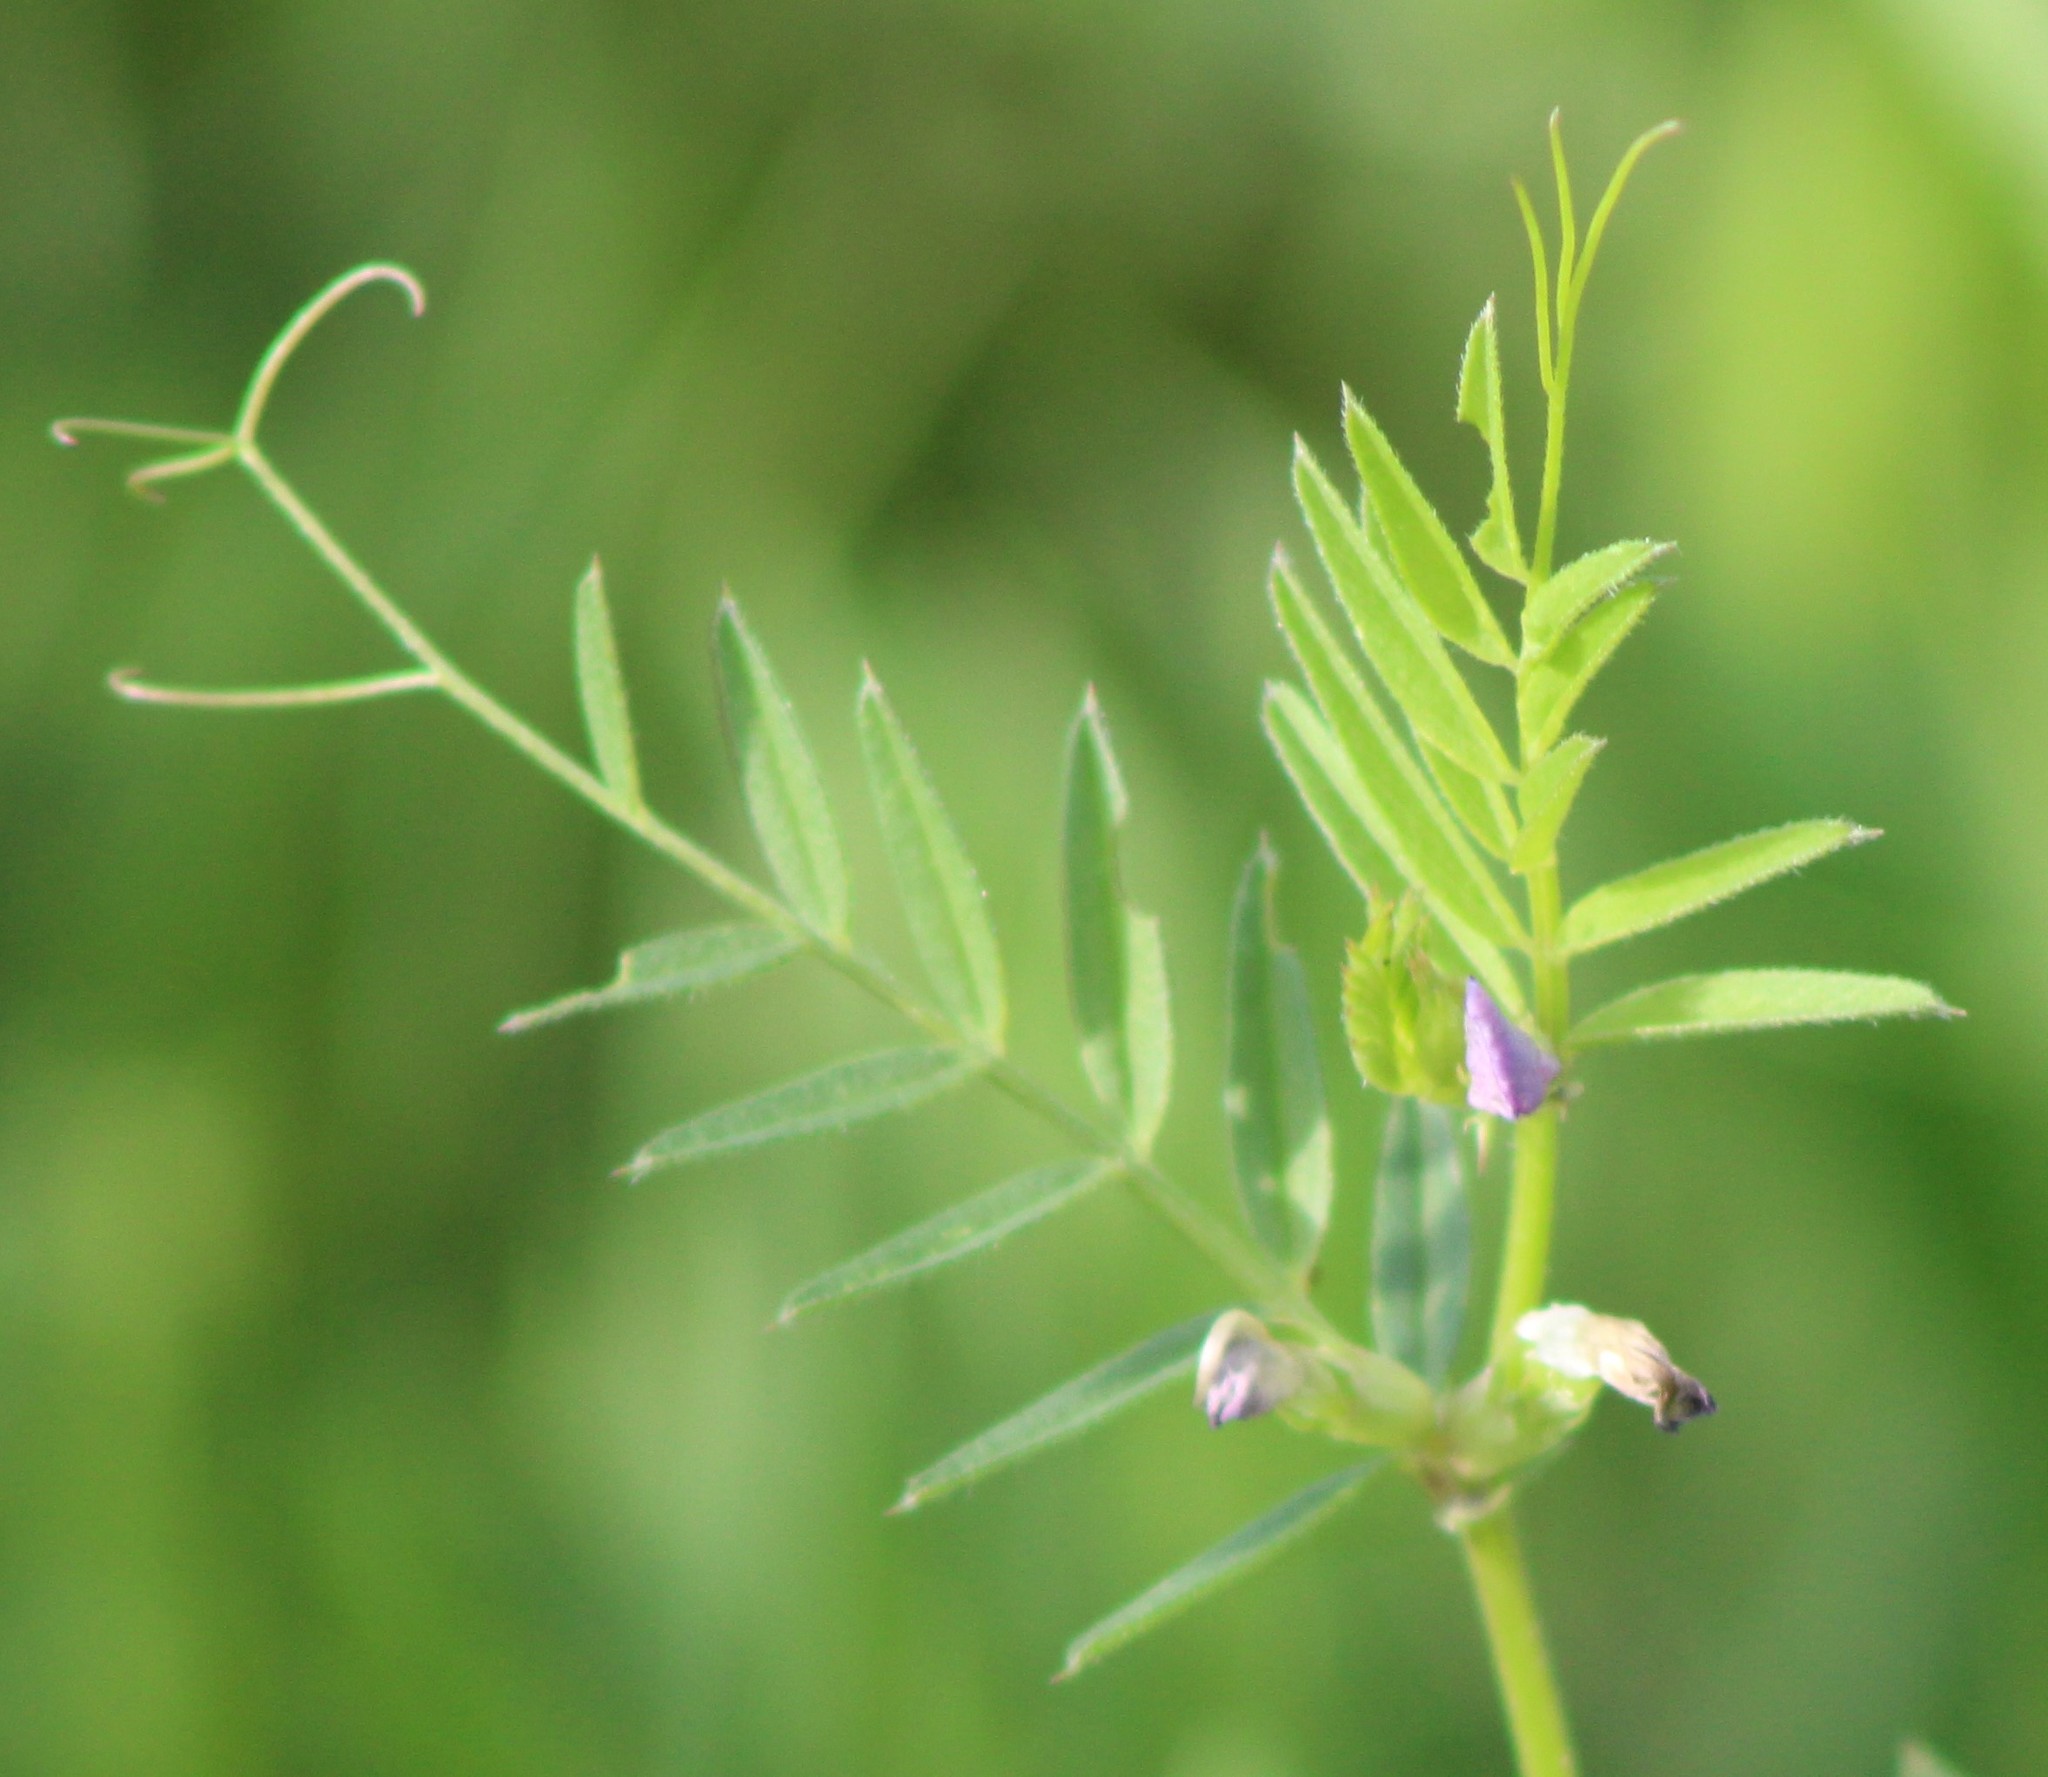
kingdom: Plantae
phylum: Tracheophyta
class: Magnoliopsida
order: Fabales
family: Fabaceae
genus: Vicia
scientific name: Vicia sativa
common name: Garden vetch
